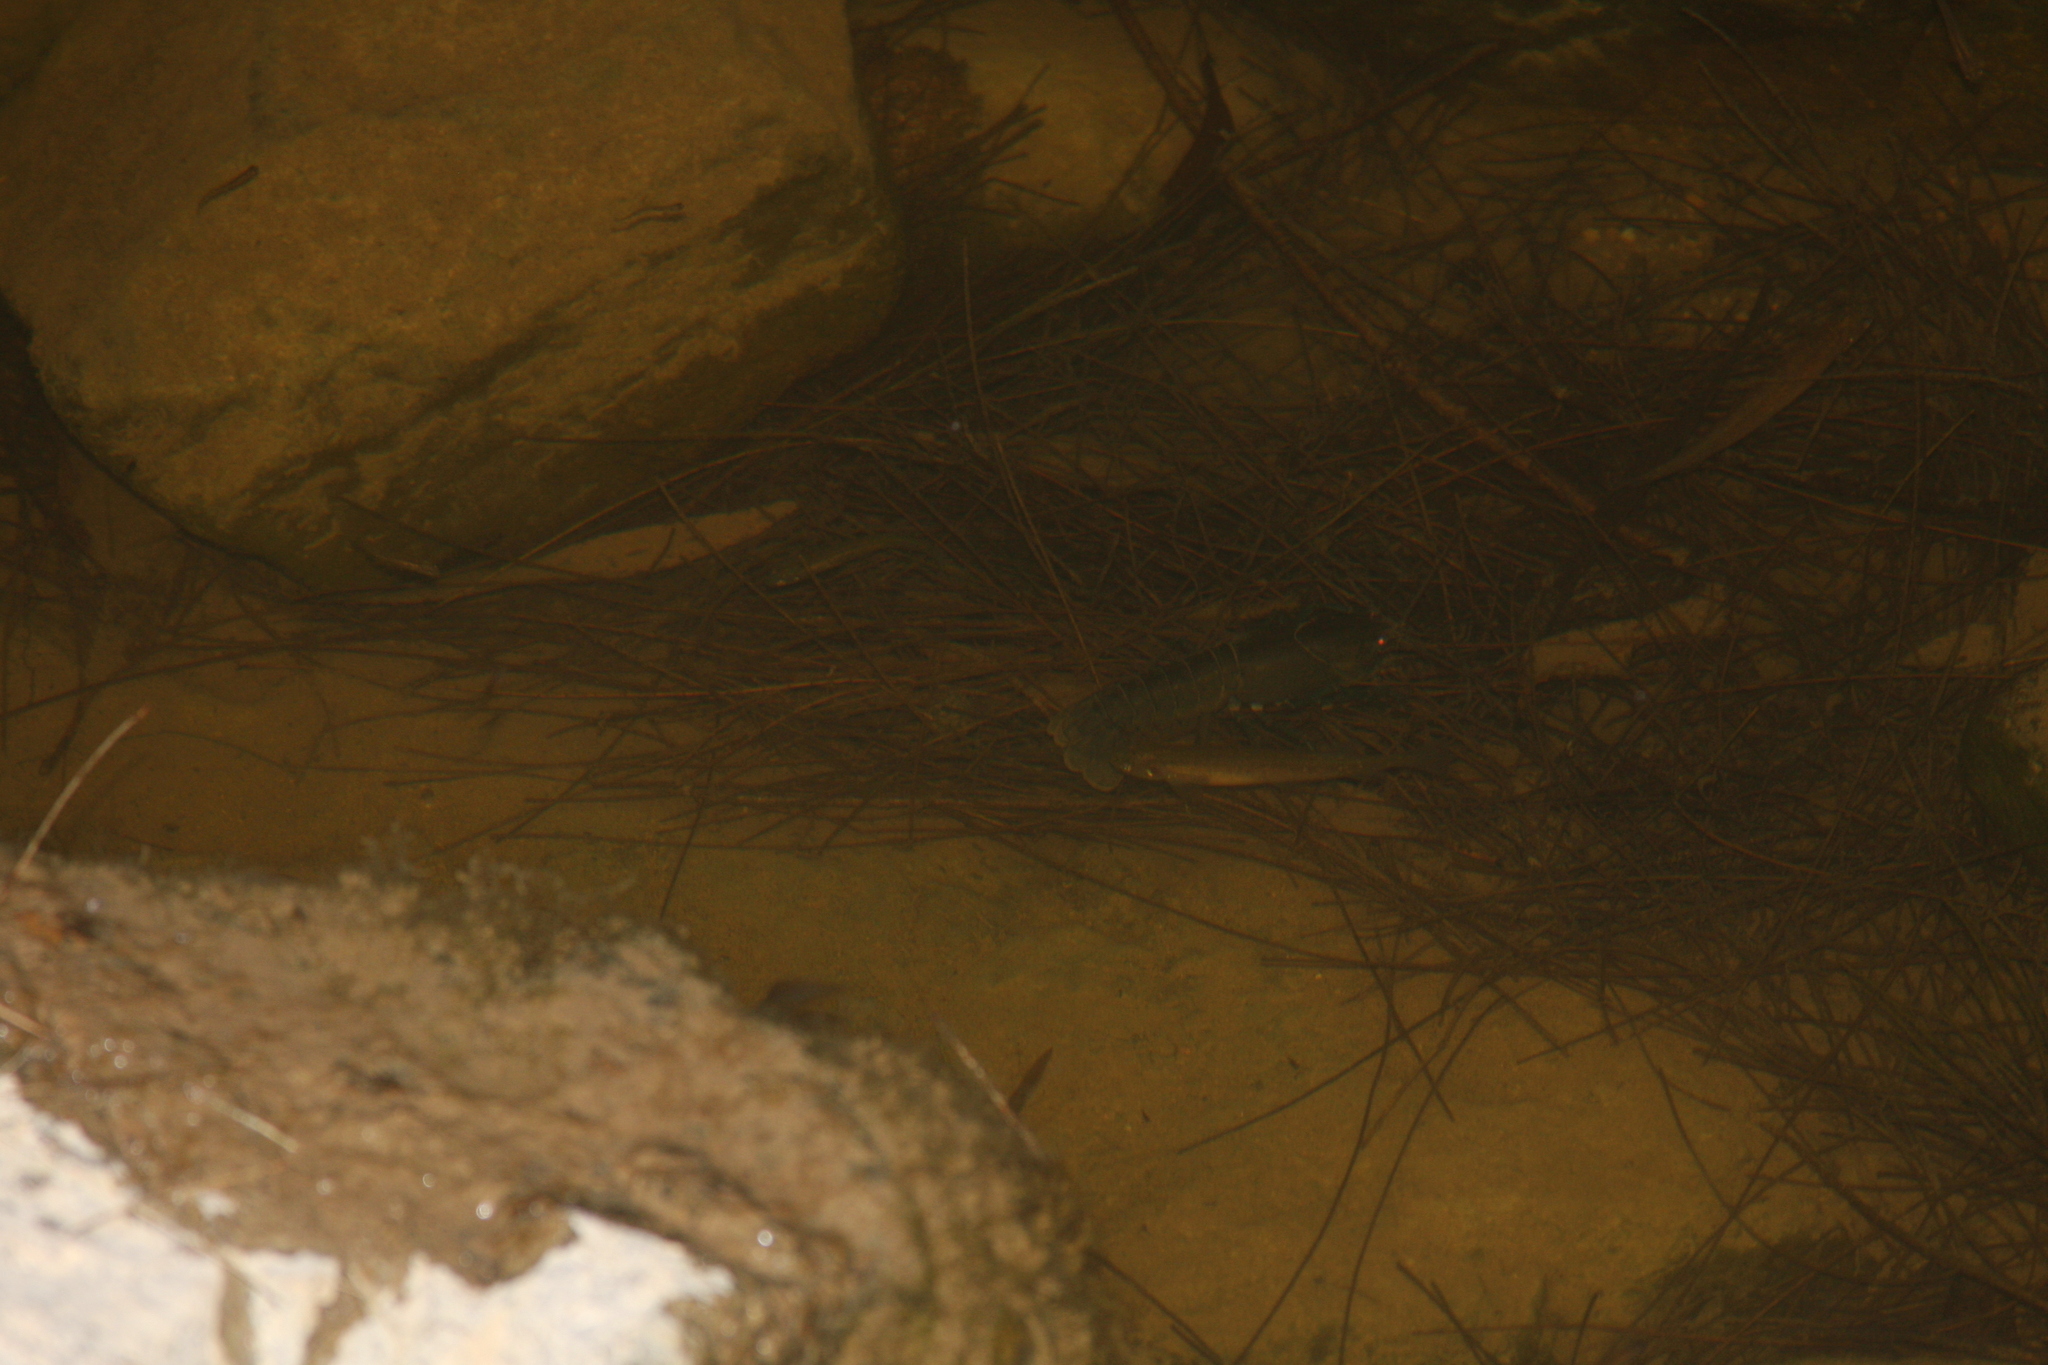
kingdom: Animalia
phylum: Arthropoda
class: Malacostraca
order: Decapoda
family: Parastacidae
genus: Cherax
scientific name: Cherax destructor
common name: Yabby
